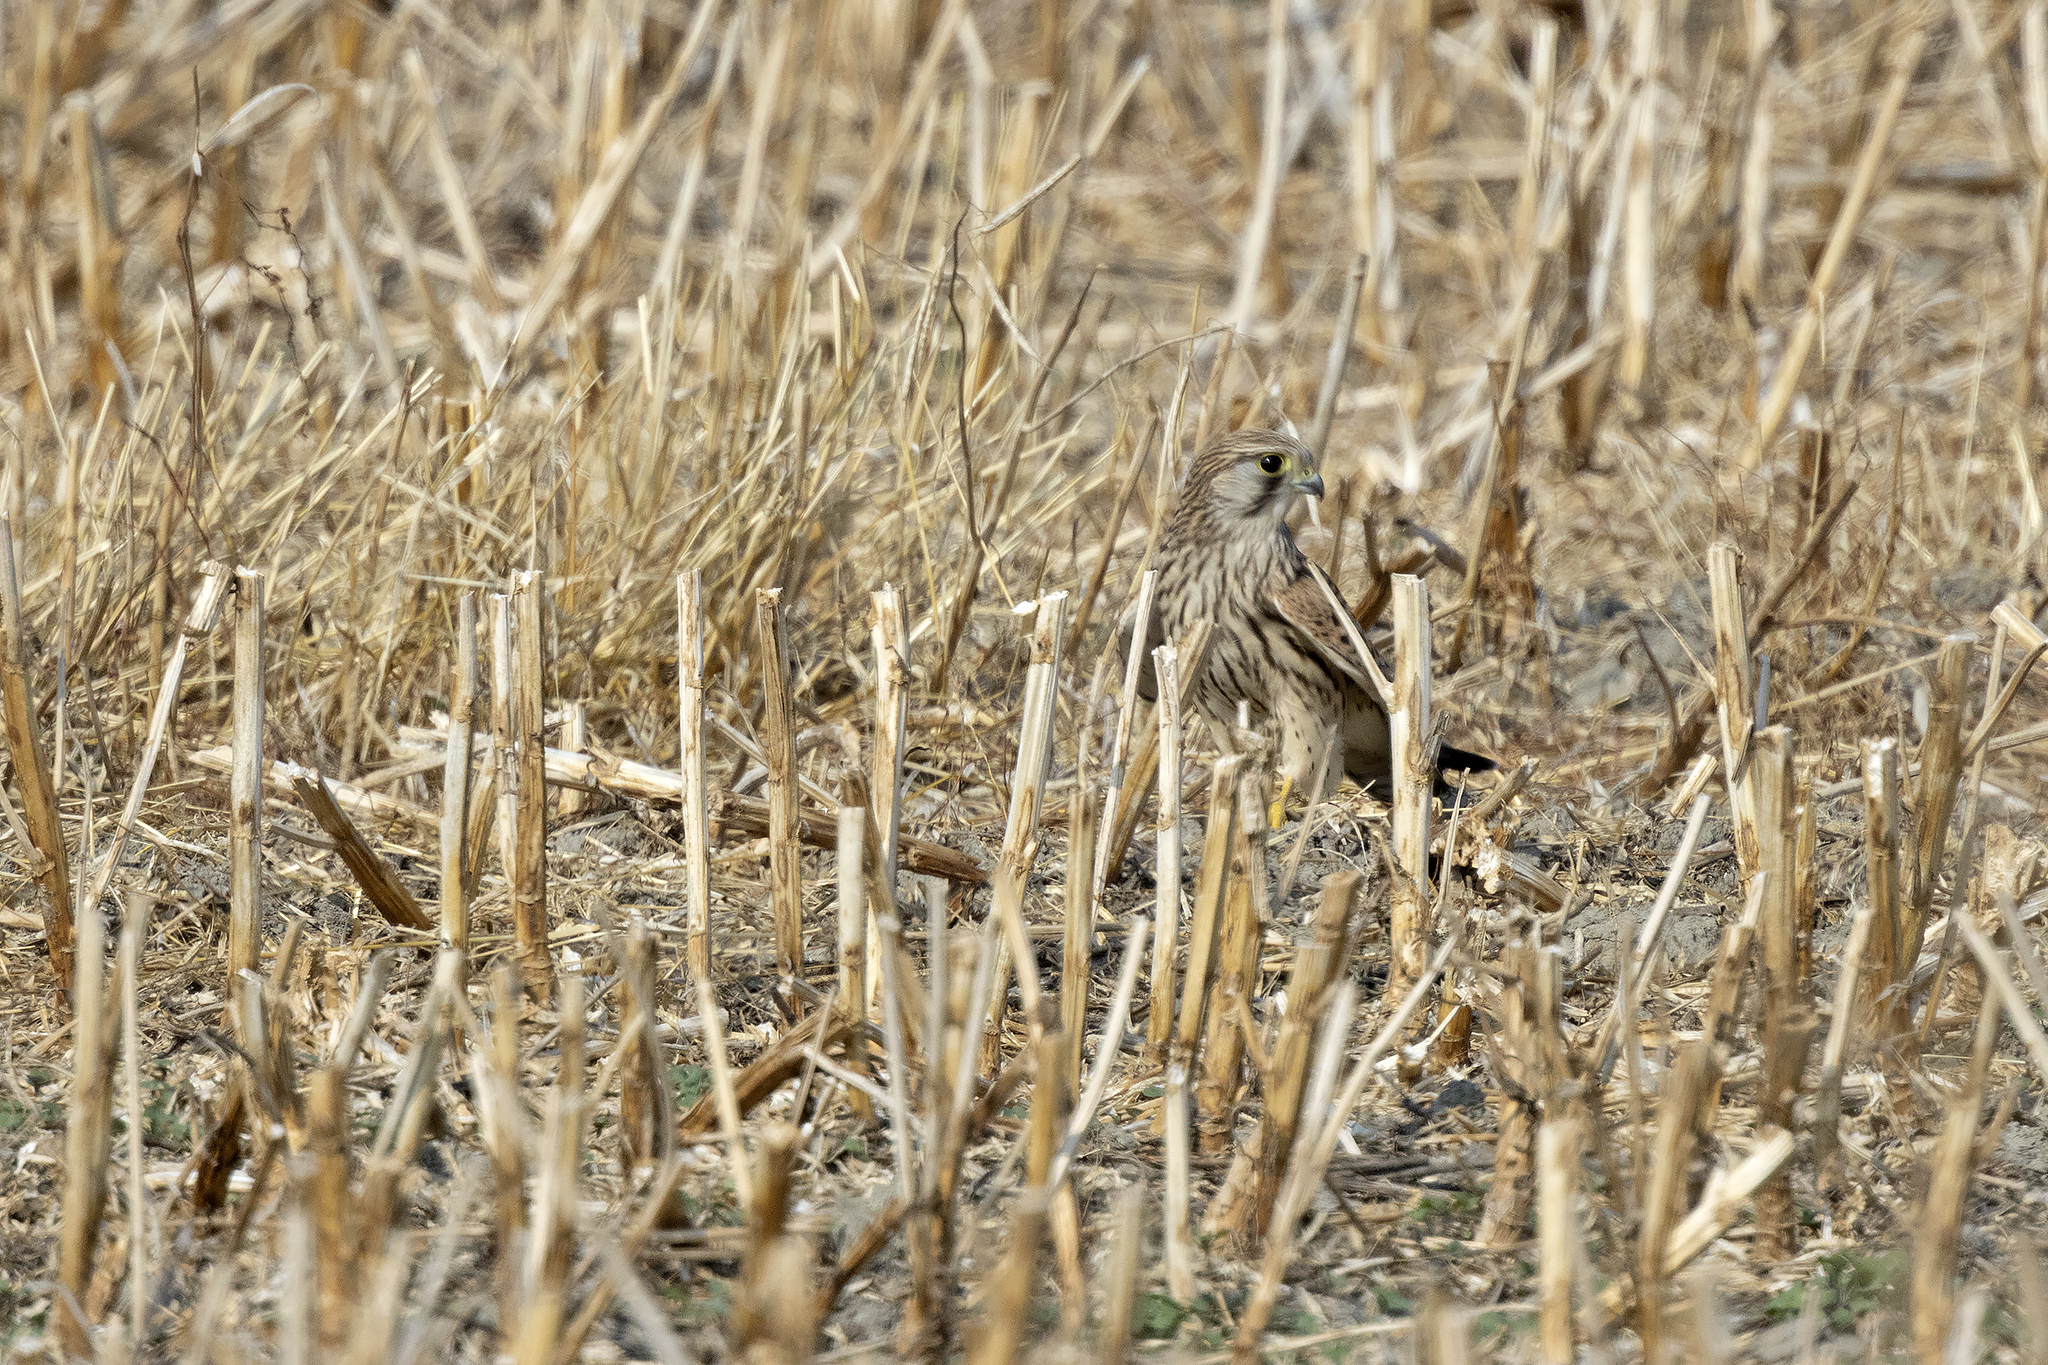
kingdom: Animalia
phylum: Chordata
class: Aves
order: Falconiformes
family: Falconidae
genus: Falco
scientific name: Falco tinnunculus
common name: Common kestrel
